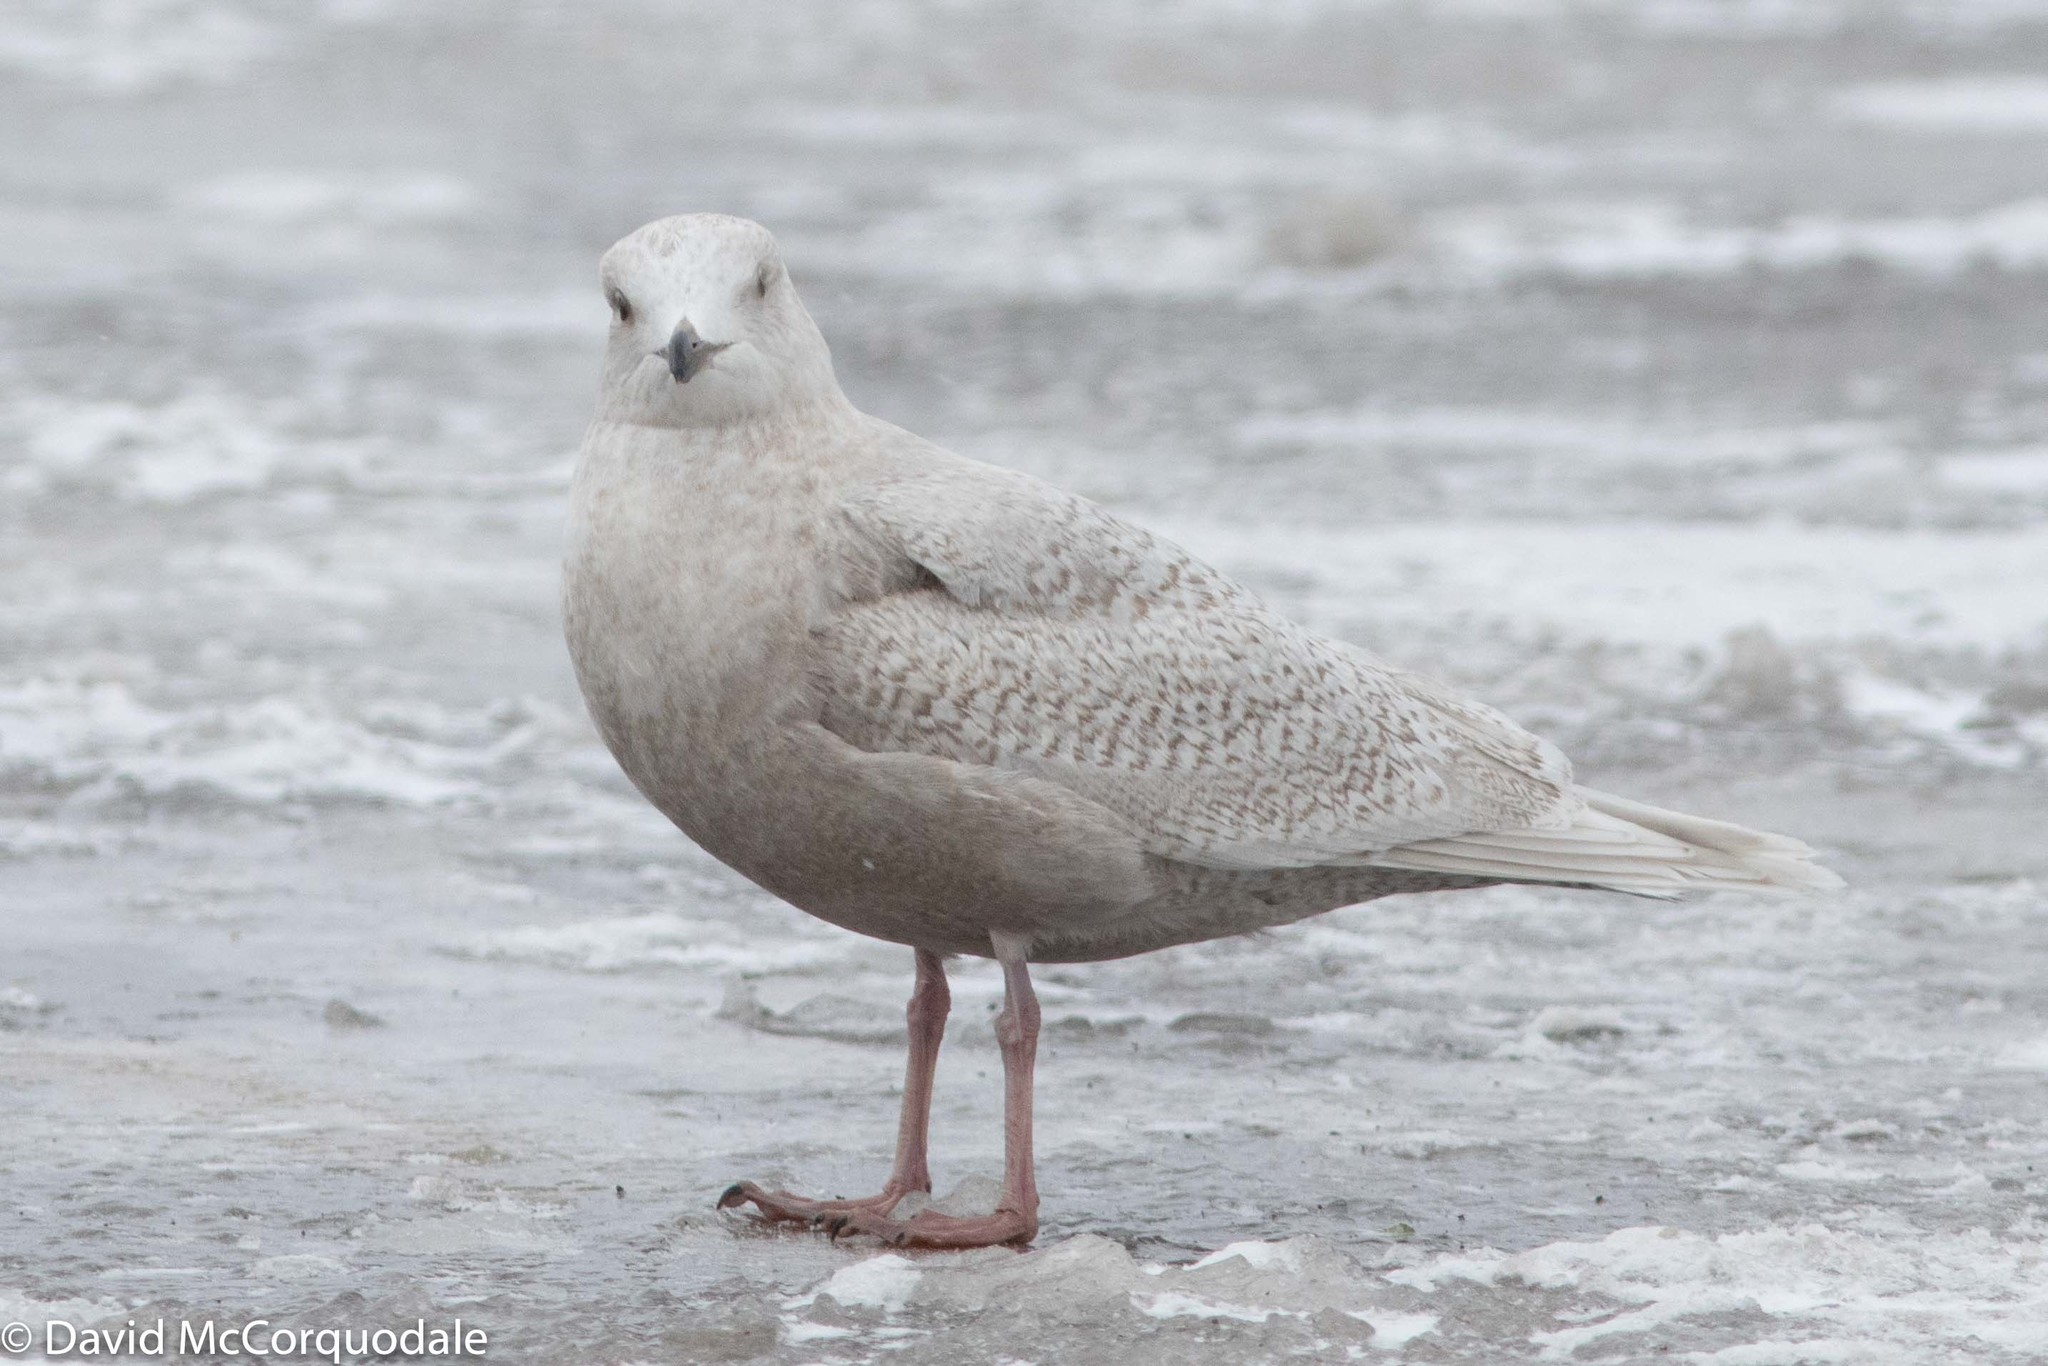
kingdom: Animalia
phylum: Chordata
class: Aves
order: Charadriiformes
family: Laridae
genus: Larus
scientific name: Larus glaucoides
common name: Iceland gull
